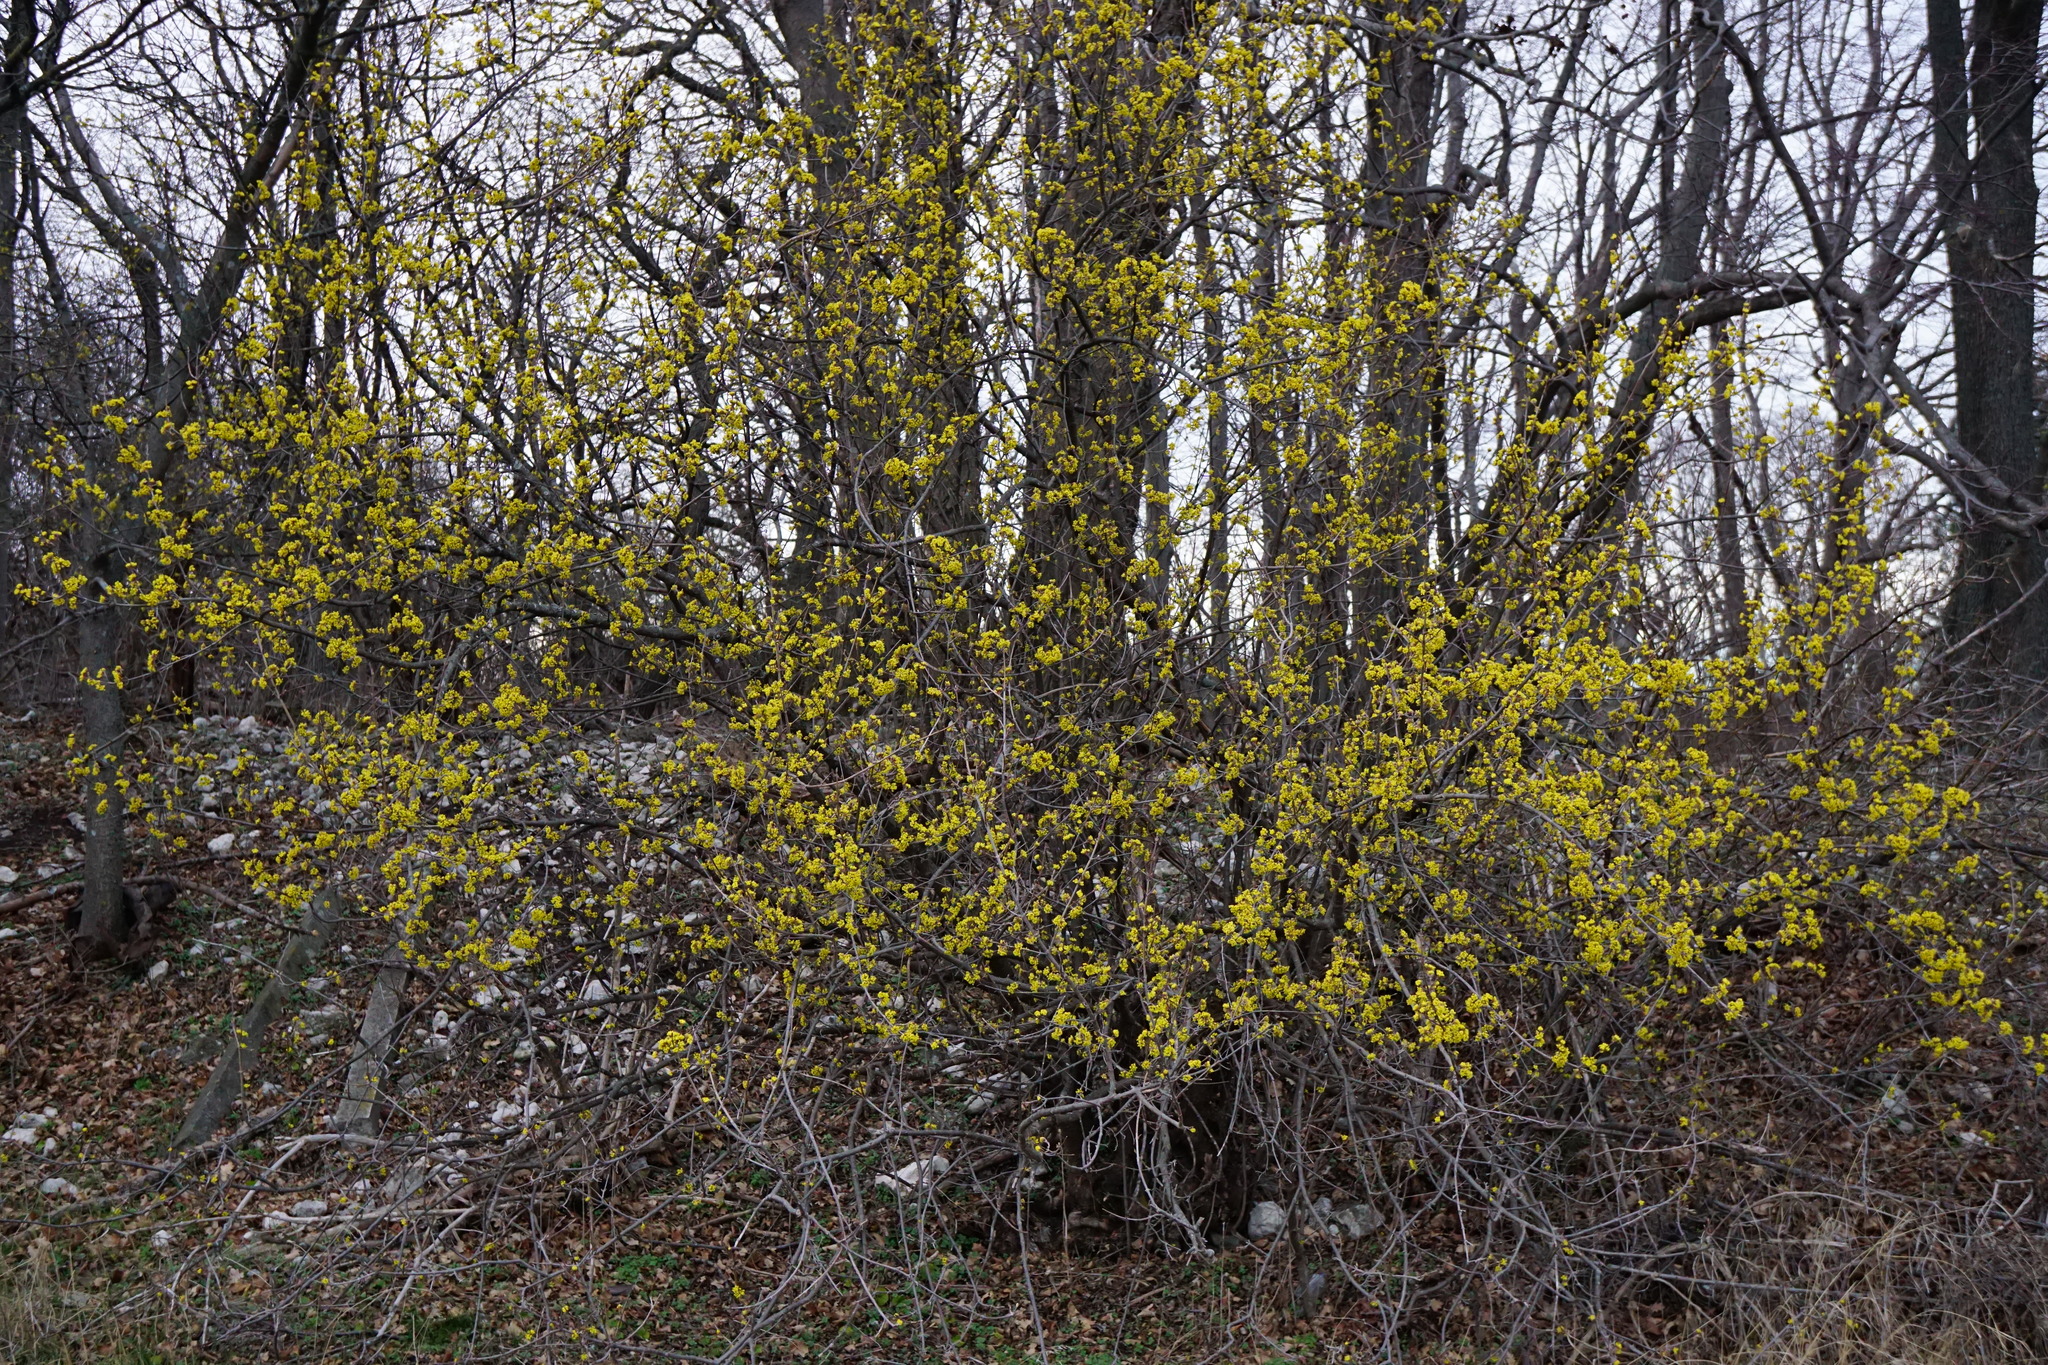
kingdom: Plantae
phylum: Tracheophyta
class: Magnoliopsida
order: Cornales
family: Cornaceae
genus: Cornus
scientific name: Cornus mas
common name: Cornelian-cherry
